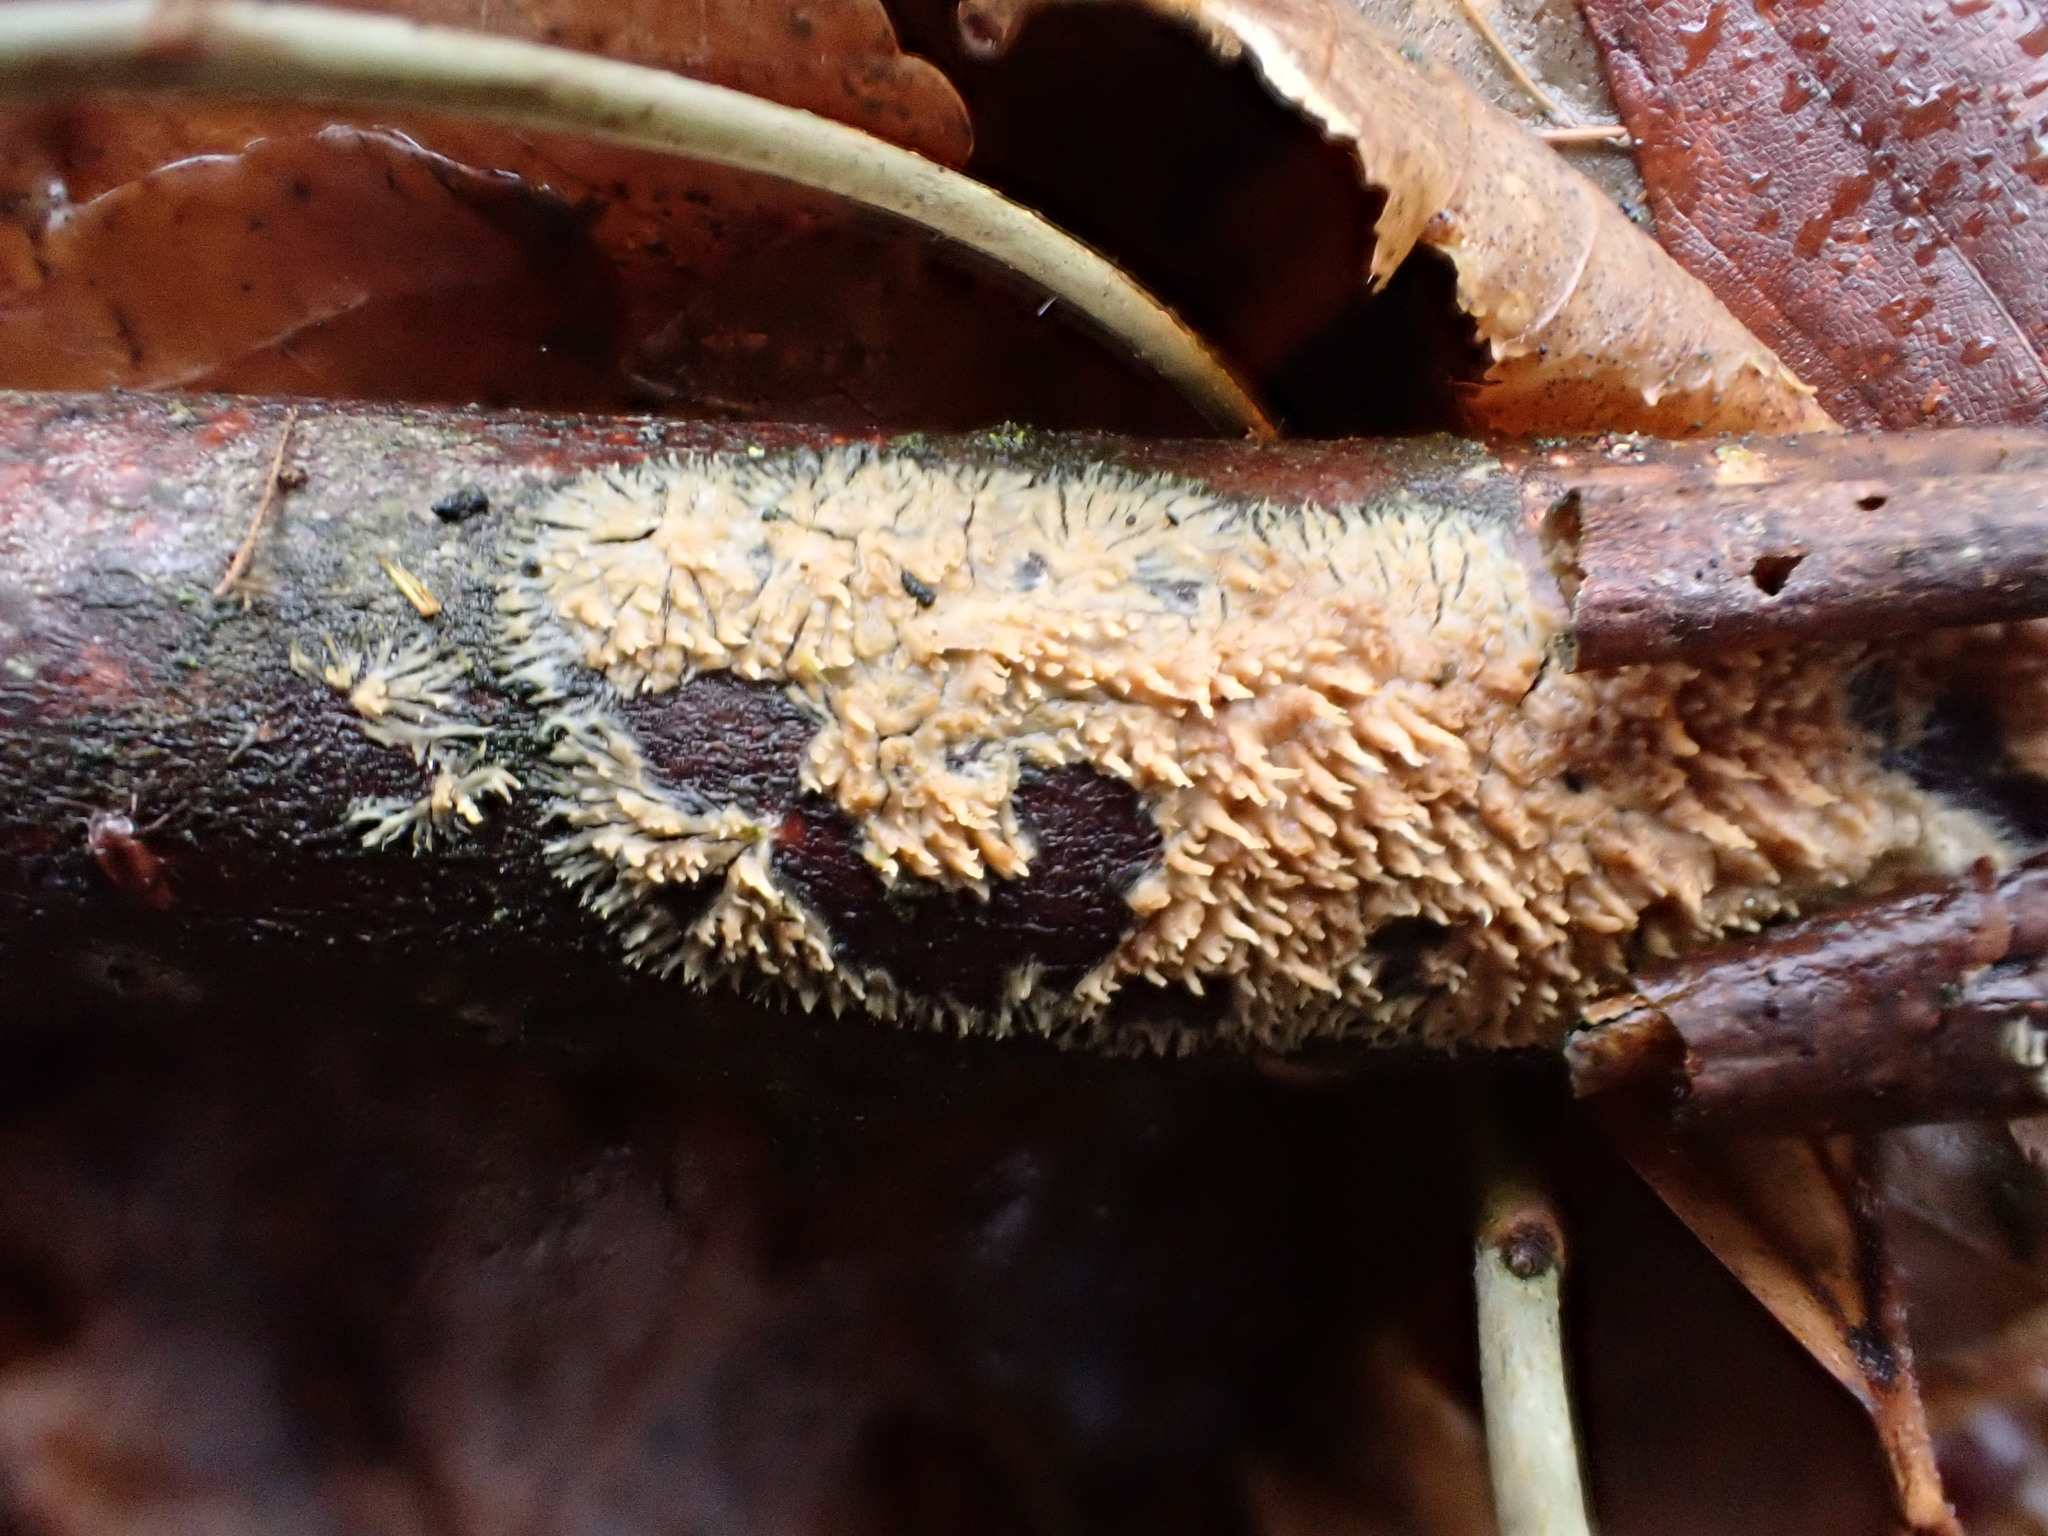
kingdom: Fungi
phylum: Basidiomycota
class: Agaricomycetes
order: Polyporales
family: Meruliaceae
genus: Phlebia
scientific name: Phlebia radiata
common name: Wrinkled crust
